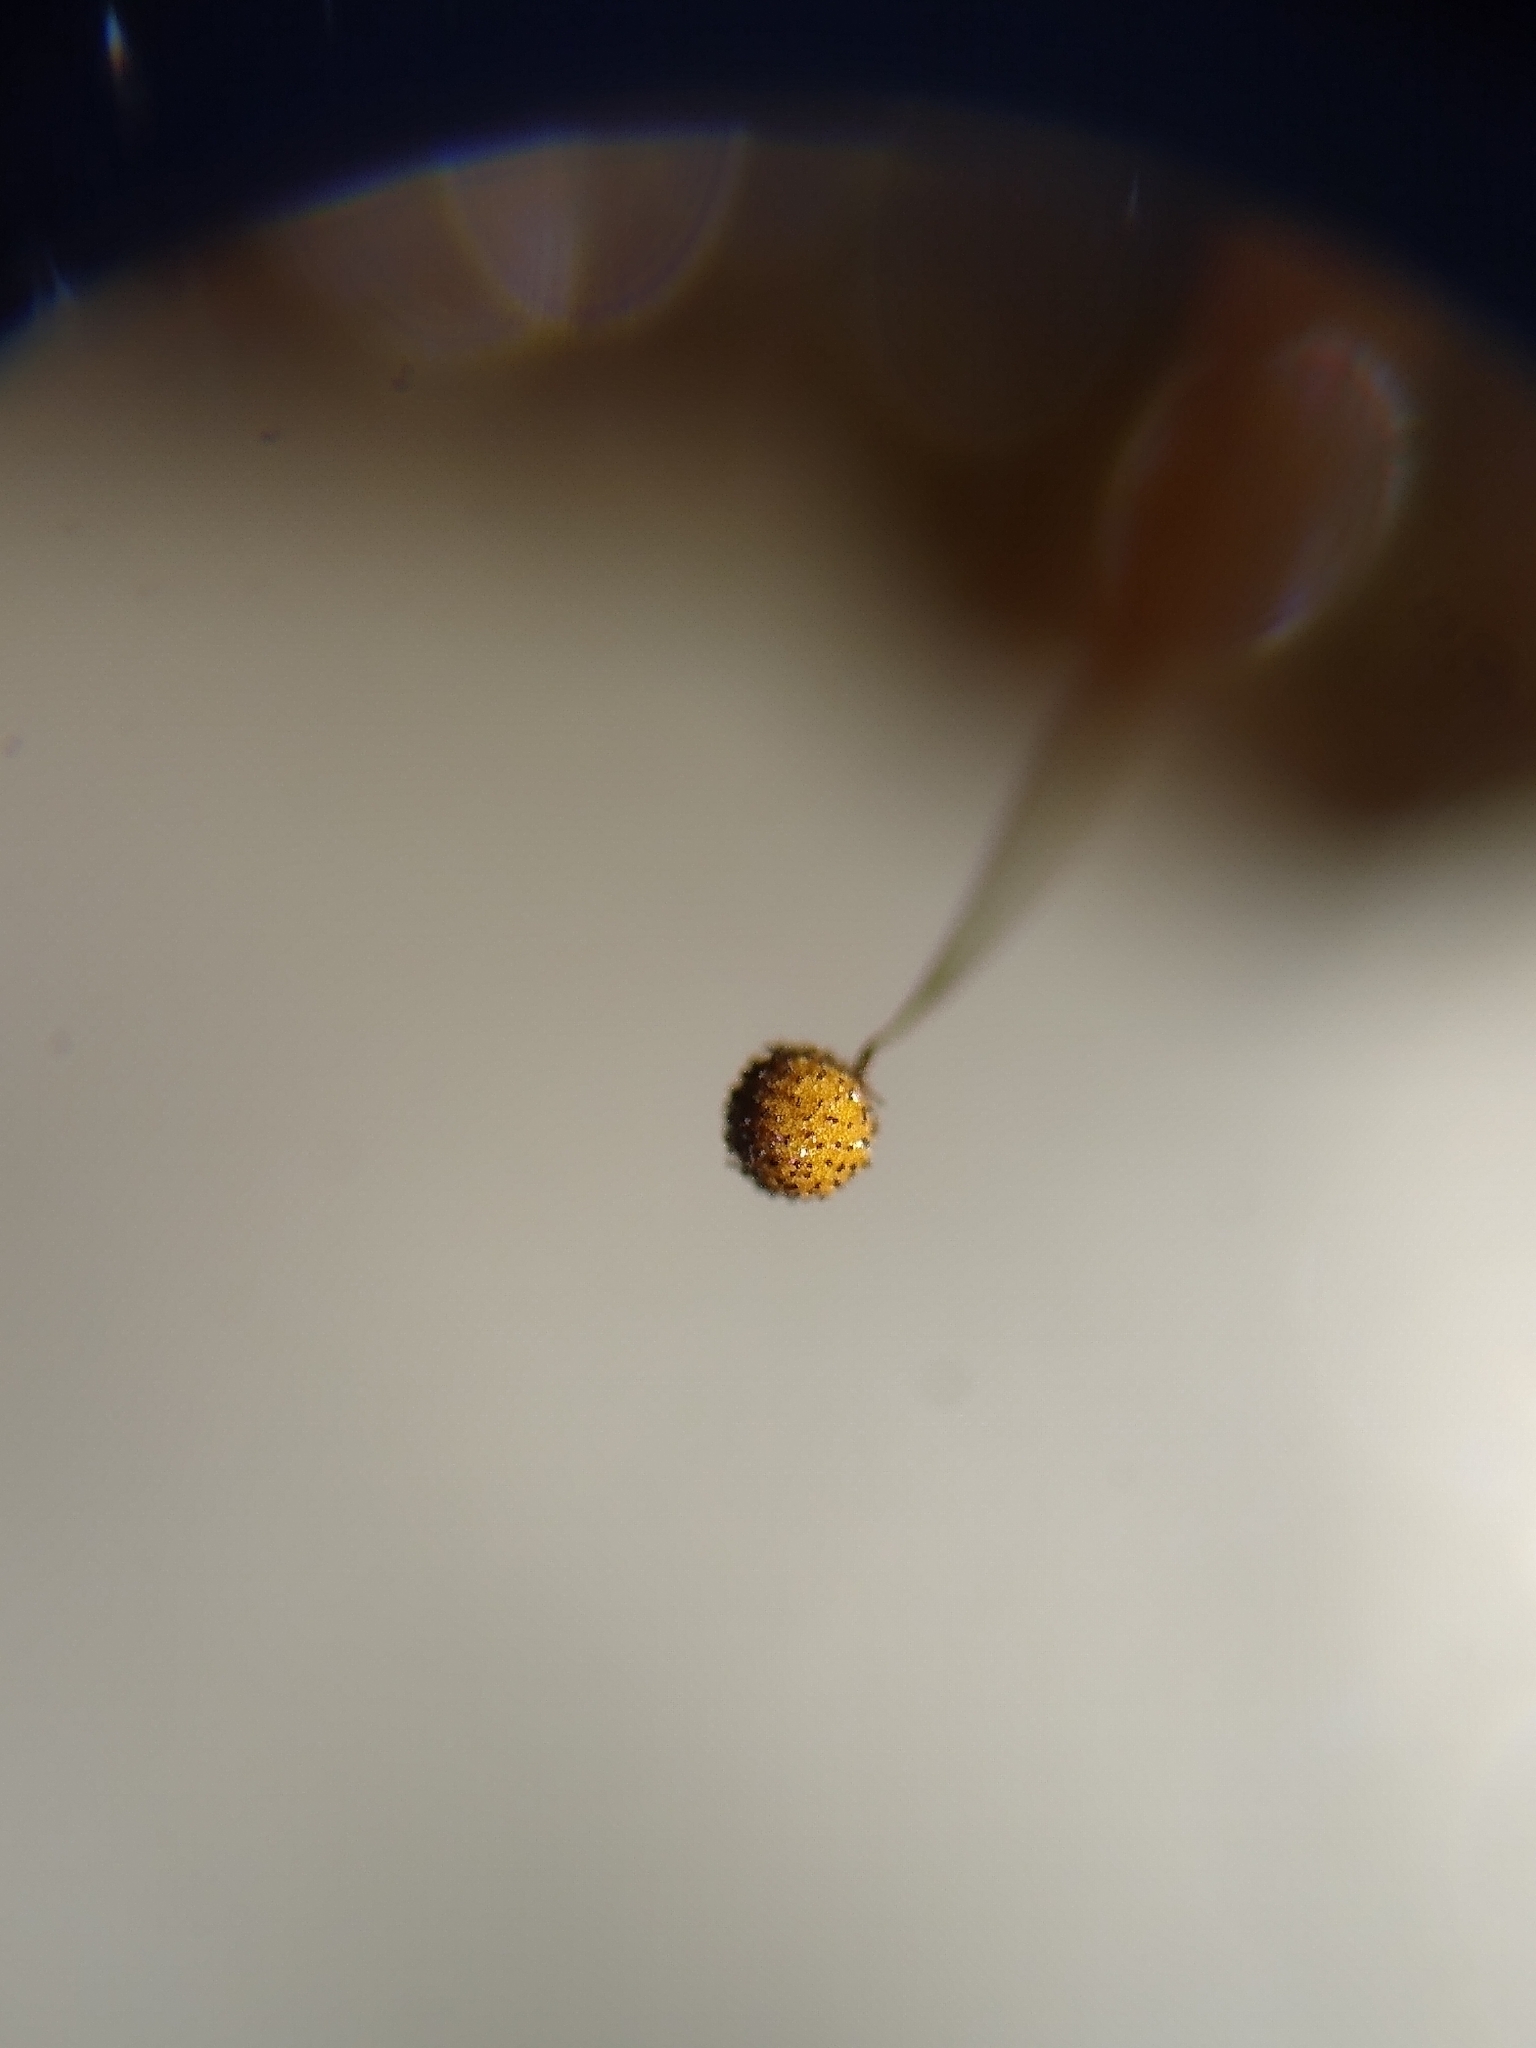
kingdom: Protozoa
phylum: Mycetozoa
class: Myxomycetes
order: Cribrariales
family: Cribrariaceae
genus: Cribraria
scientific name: Cribraria microcarpa
